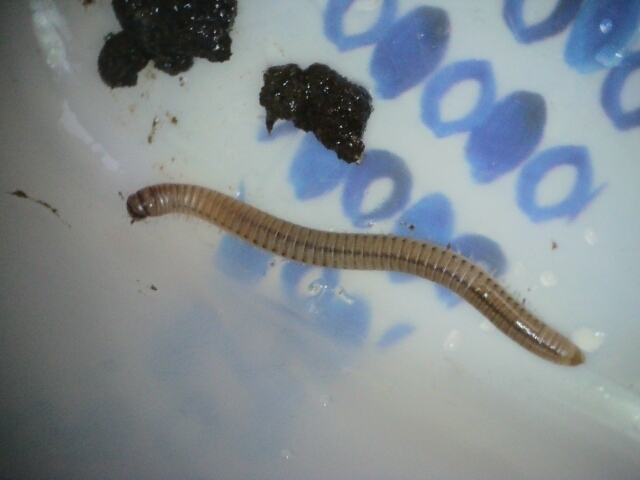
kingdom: Animalia
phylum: Arthropoda
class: Diplopoda
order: Julida
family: Julidae
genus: Cylindroiulus
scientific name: Cylindroiulus punctatus
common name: Blunt-tailed millipede
